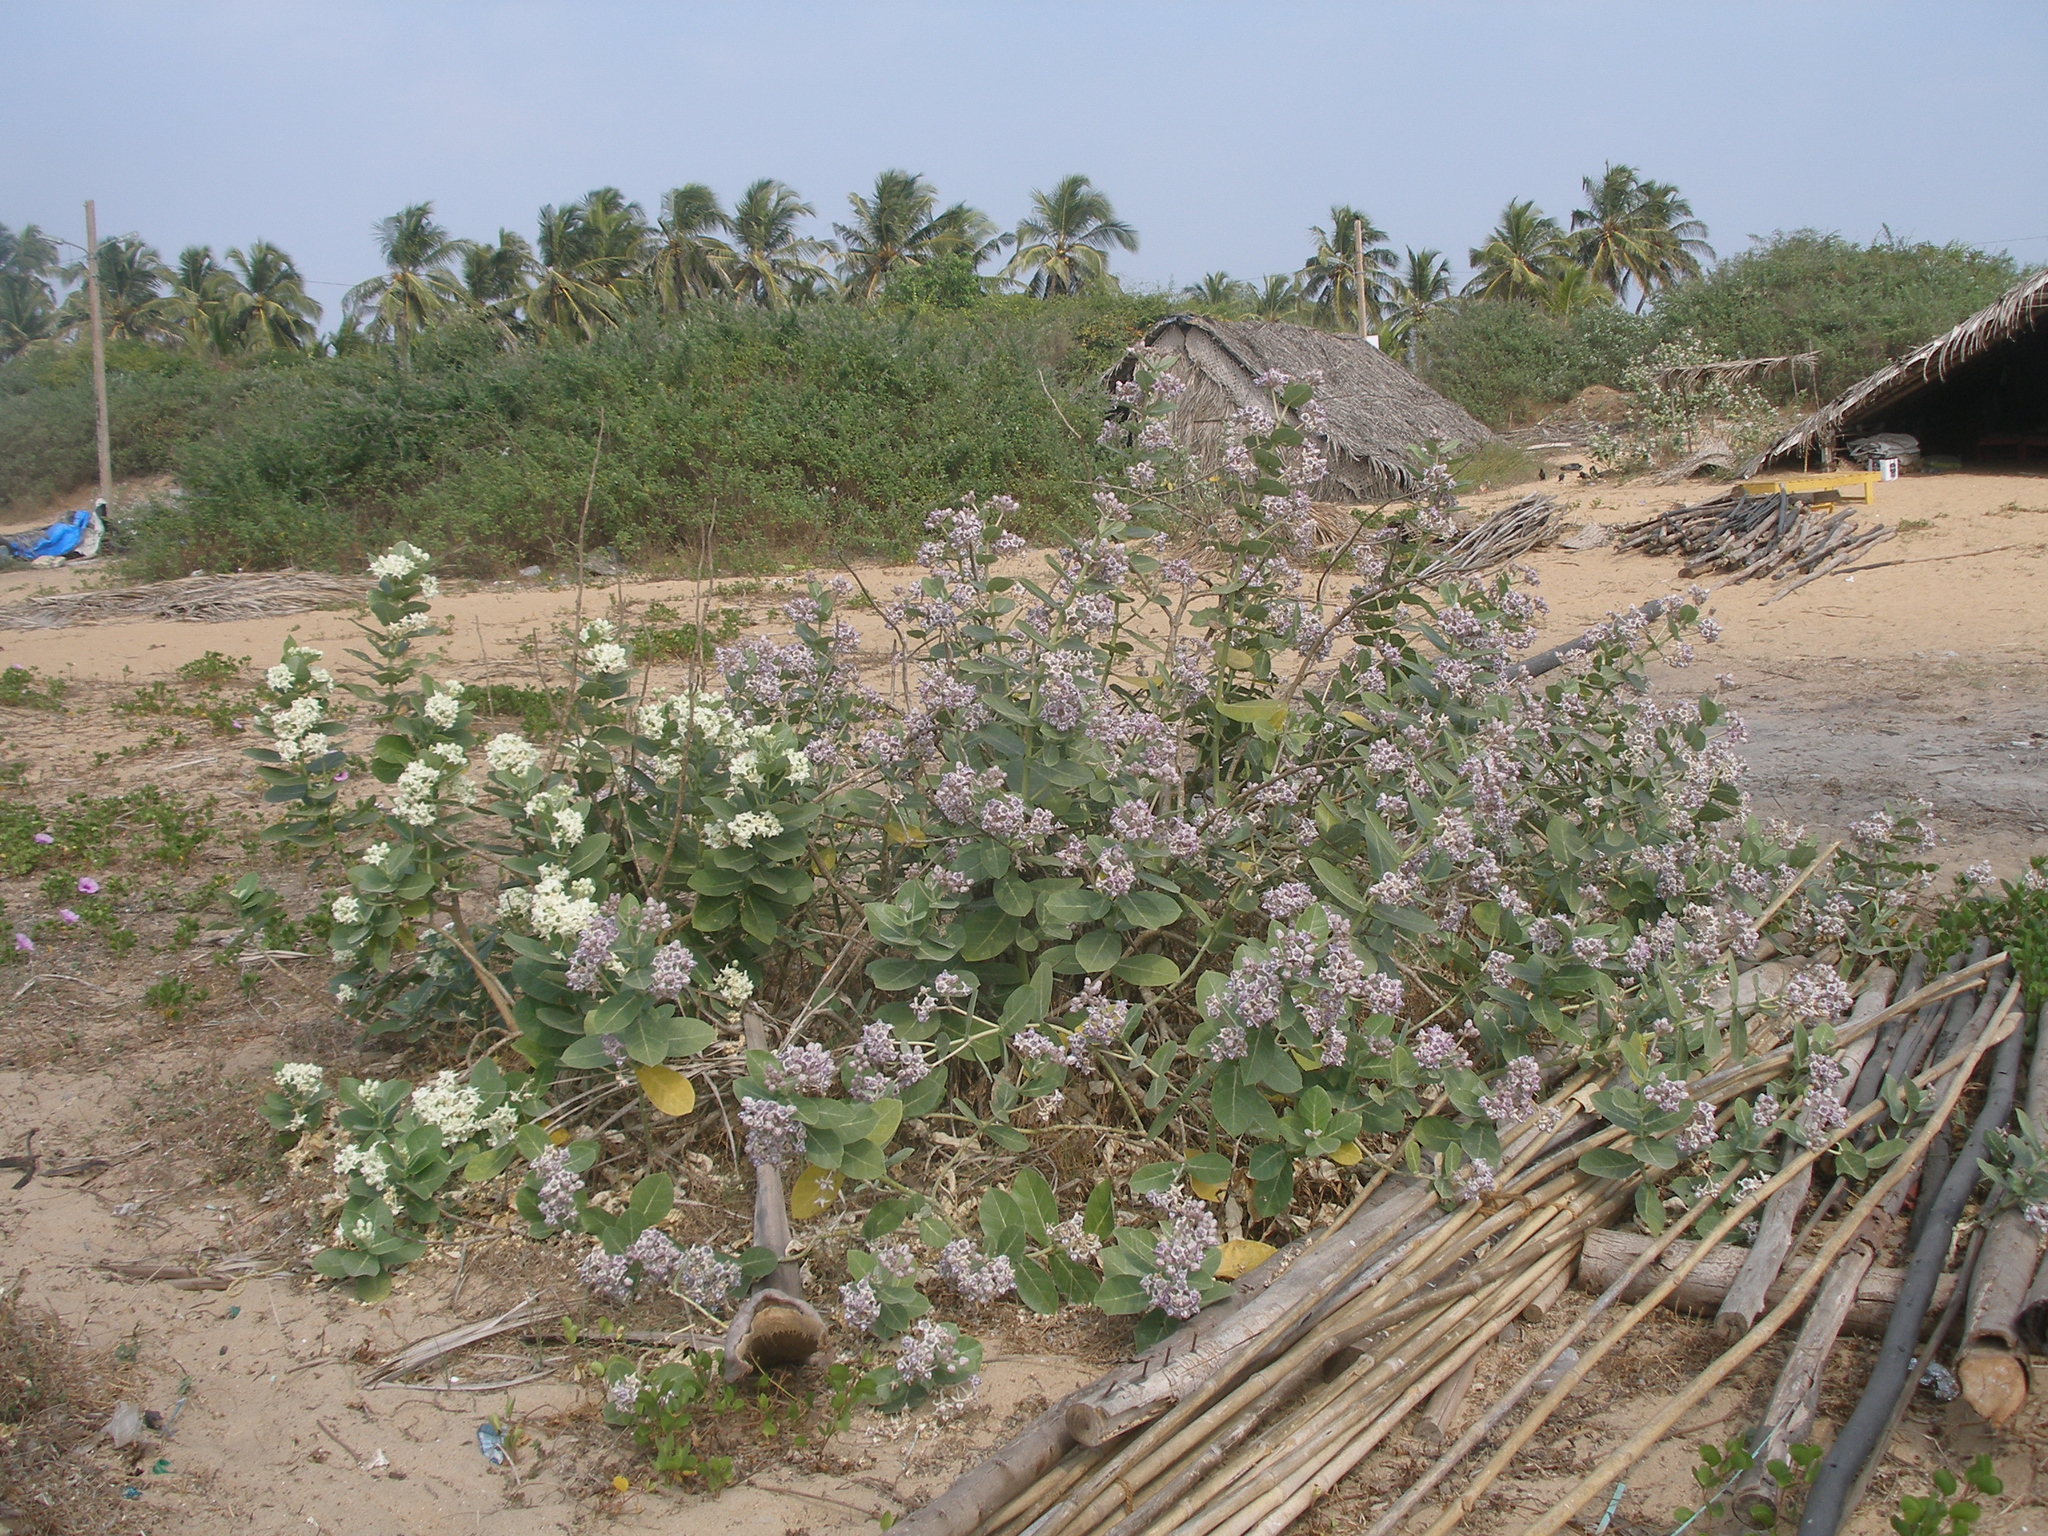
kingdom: Plantae
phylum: Tracheophyta
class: Magnoliopsida
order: Gentianales
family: Apocynaceae
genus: Calotropis
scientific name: Calotropis gigantea
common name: Crown flower
